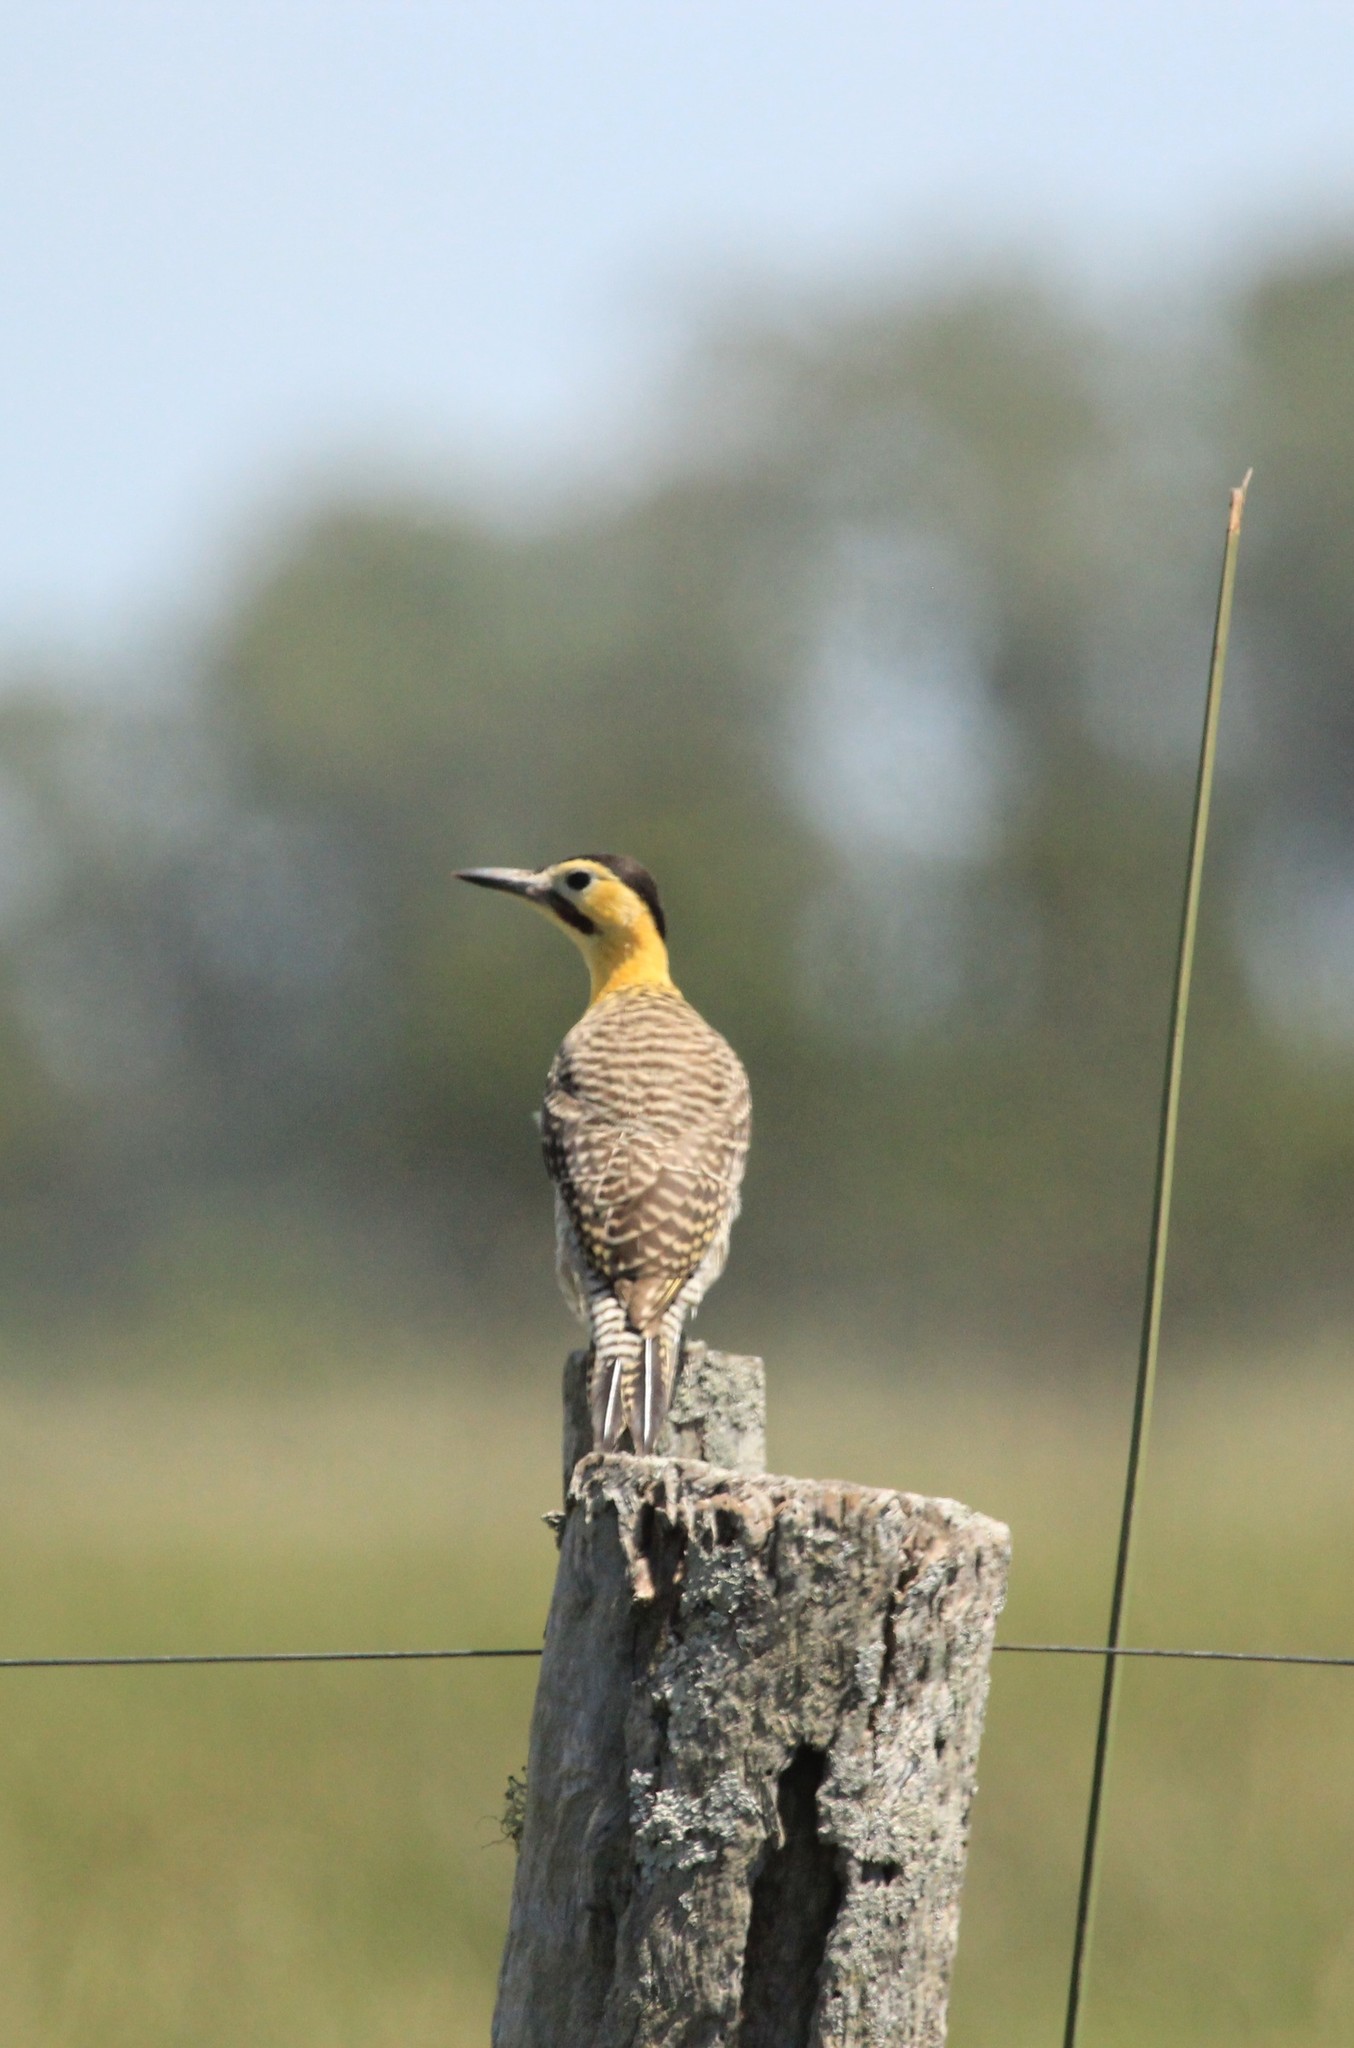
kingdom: Animalia
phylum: Chordata
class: Aves
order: Piciformes
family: Picidae
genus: Colaptes
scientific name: Colaptes campestris
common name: Campo flicker
